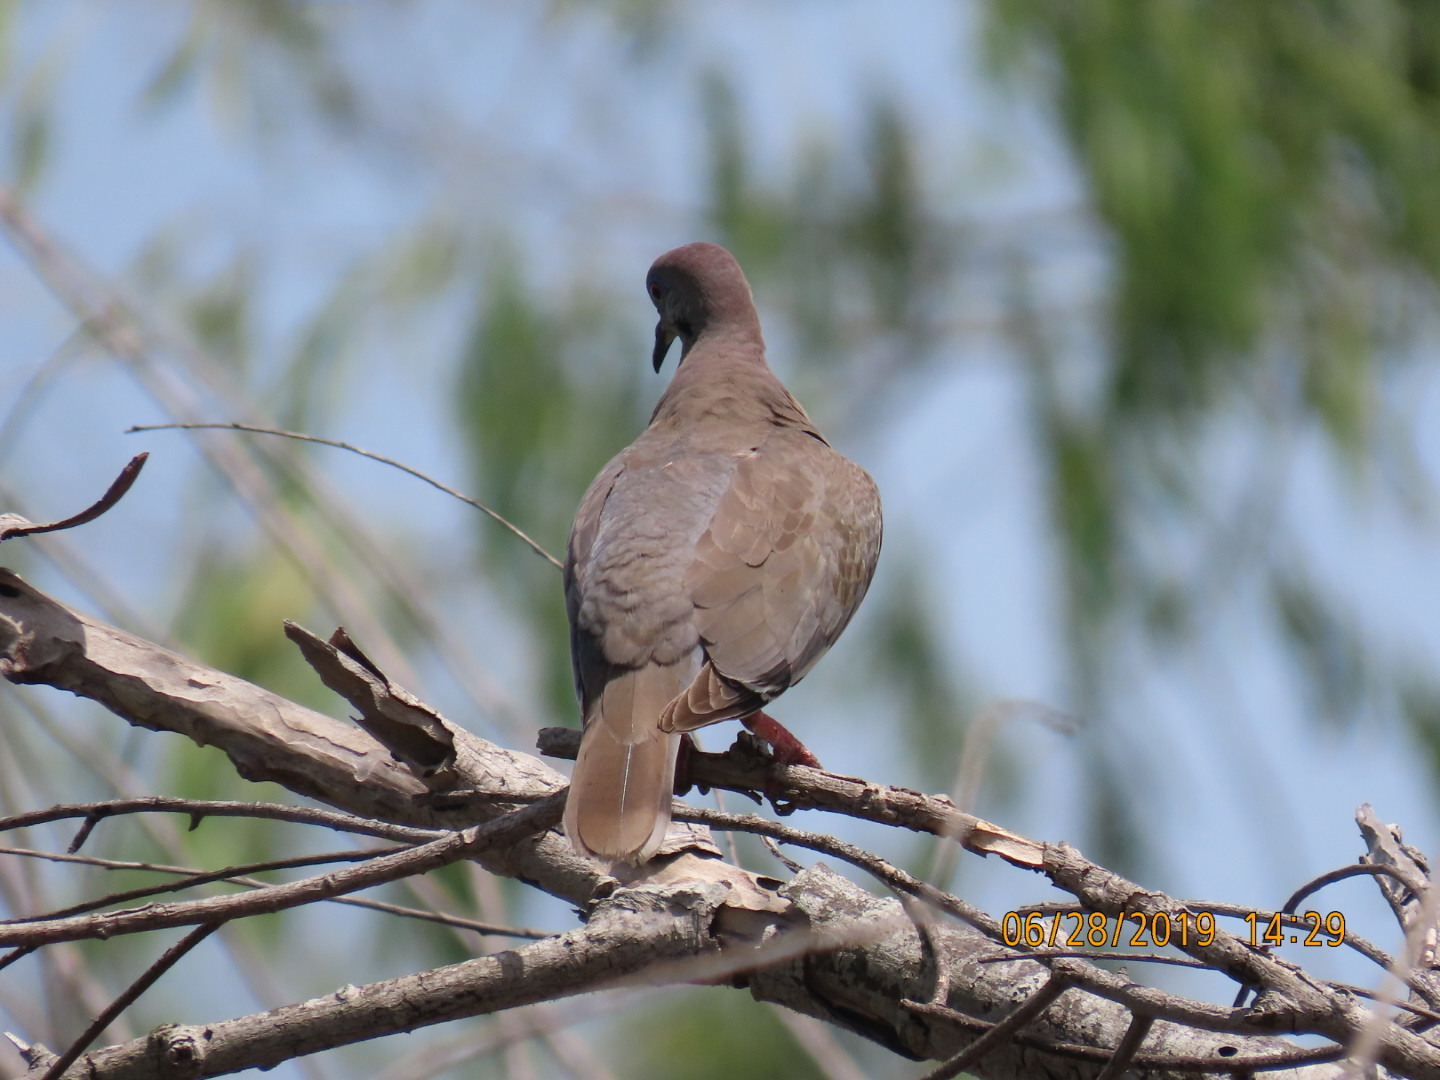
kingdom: Animalia
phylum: Chordata
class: Aves
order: Columbiformes
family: Columbidae
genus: Zenaida
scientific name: Zenaida macroura
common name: Mourning dove
